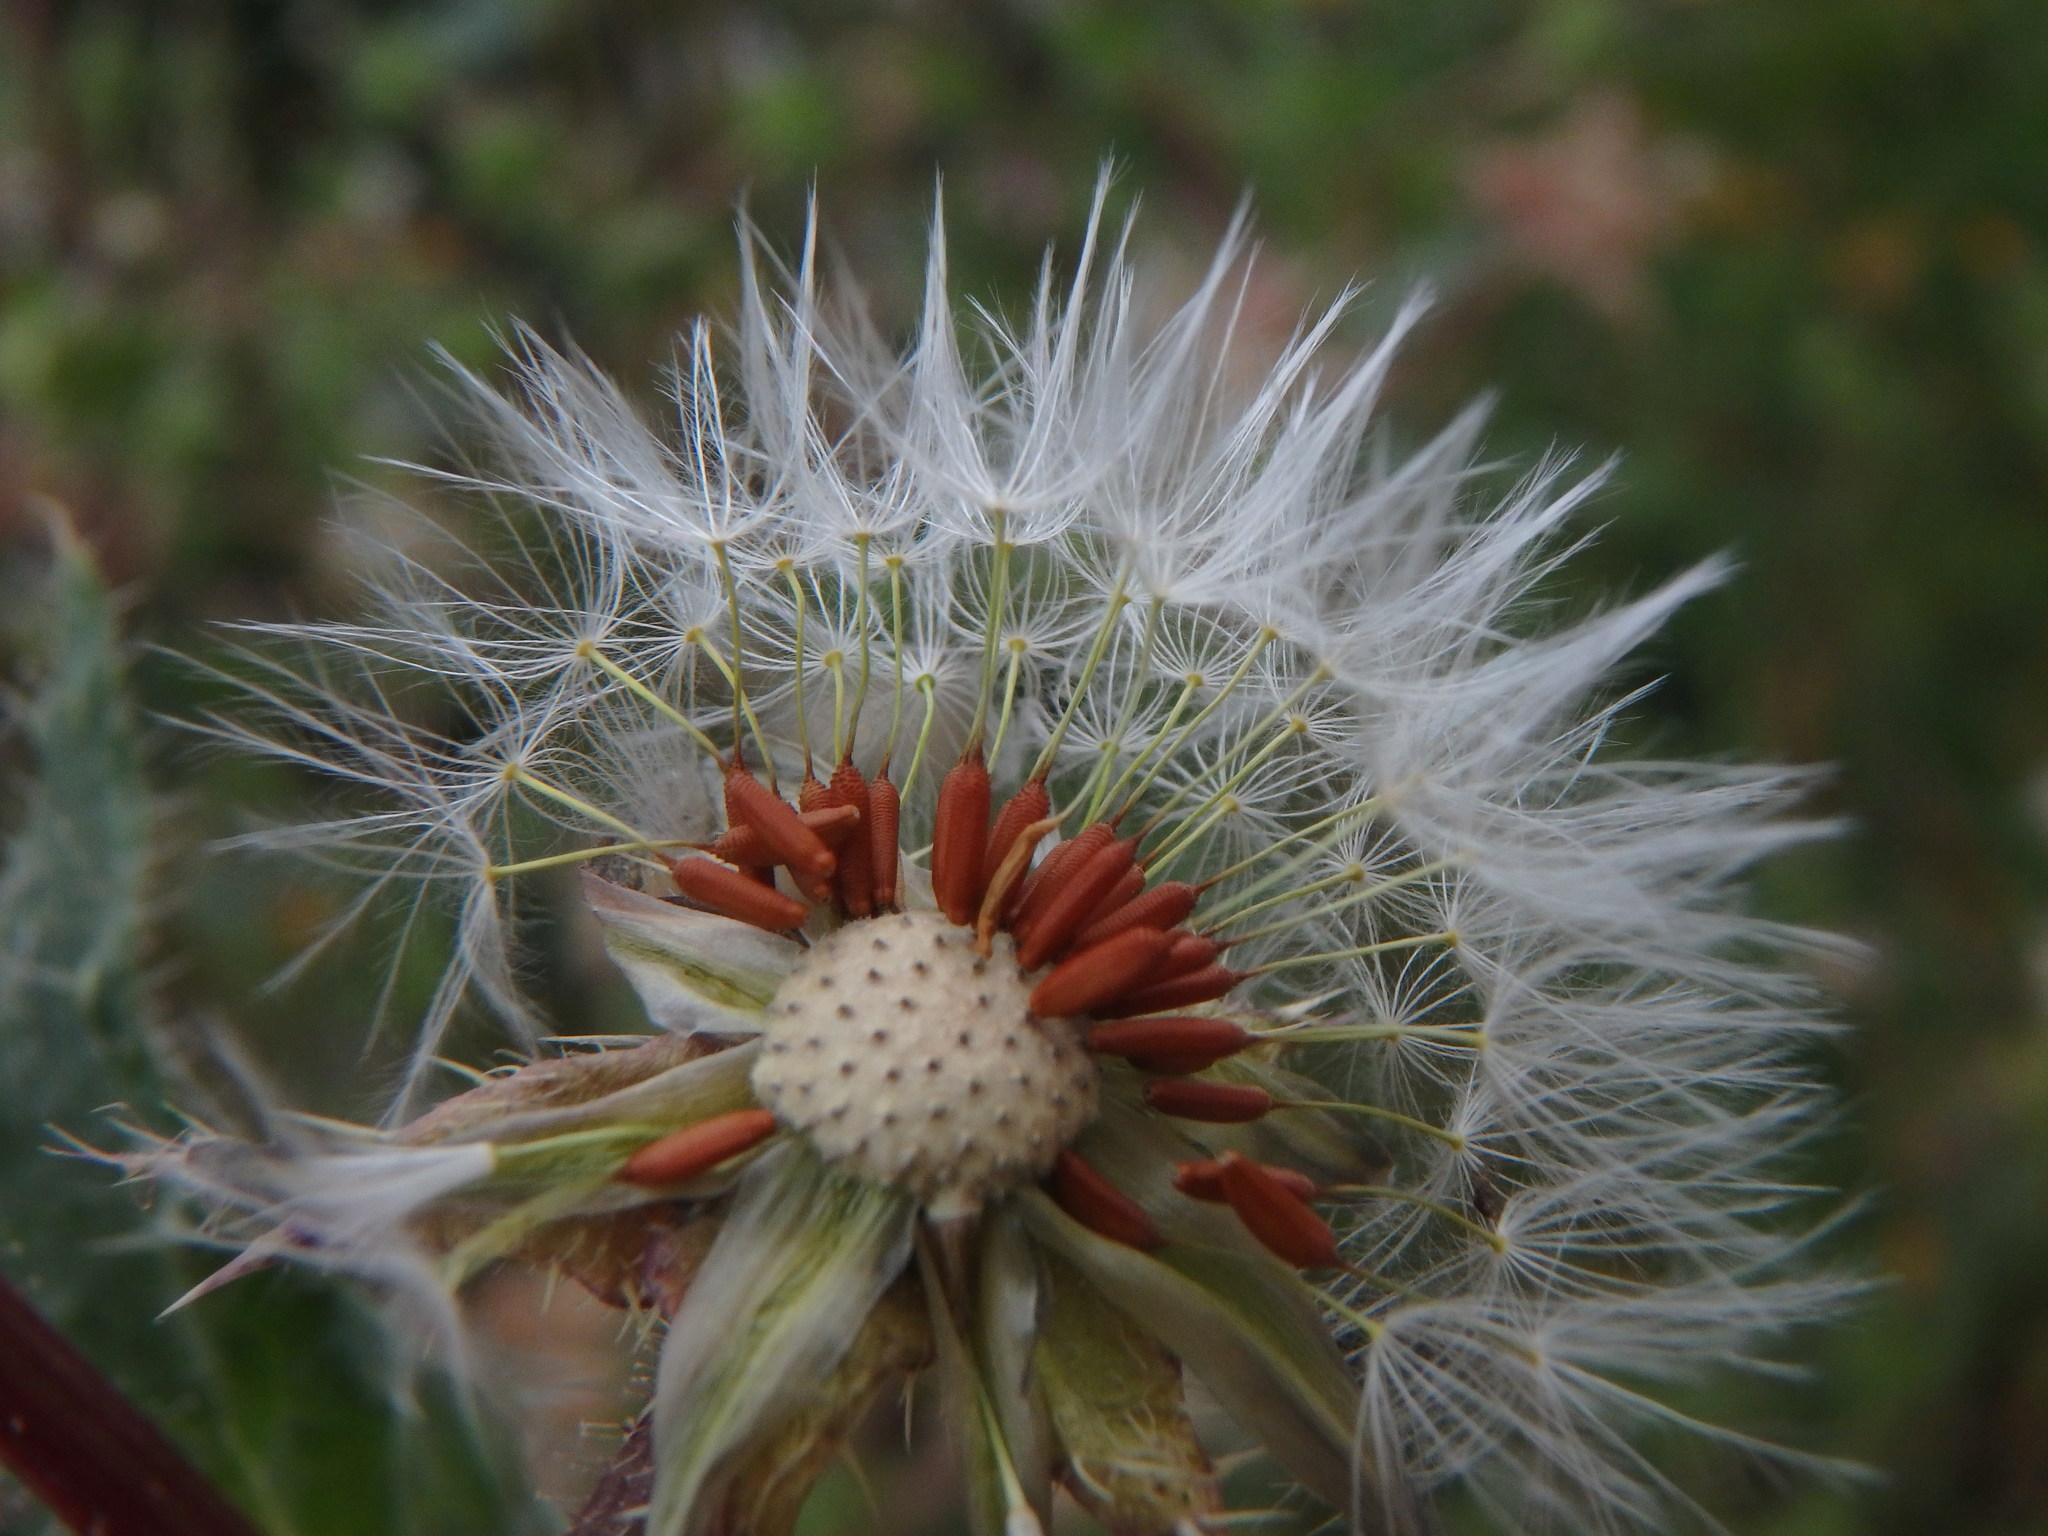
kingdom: Plantae
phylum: Tracheophyta
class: Magnoliopsida
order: Asterales
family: Asteraceae
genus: Helminthotheca
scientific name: Helminthotheca echioides
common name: Ox-tongue
